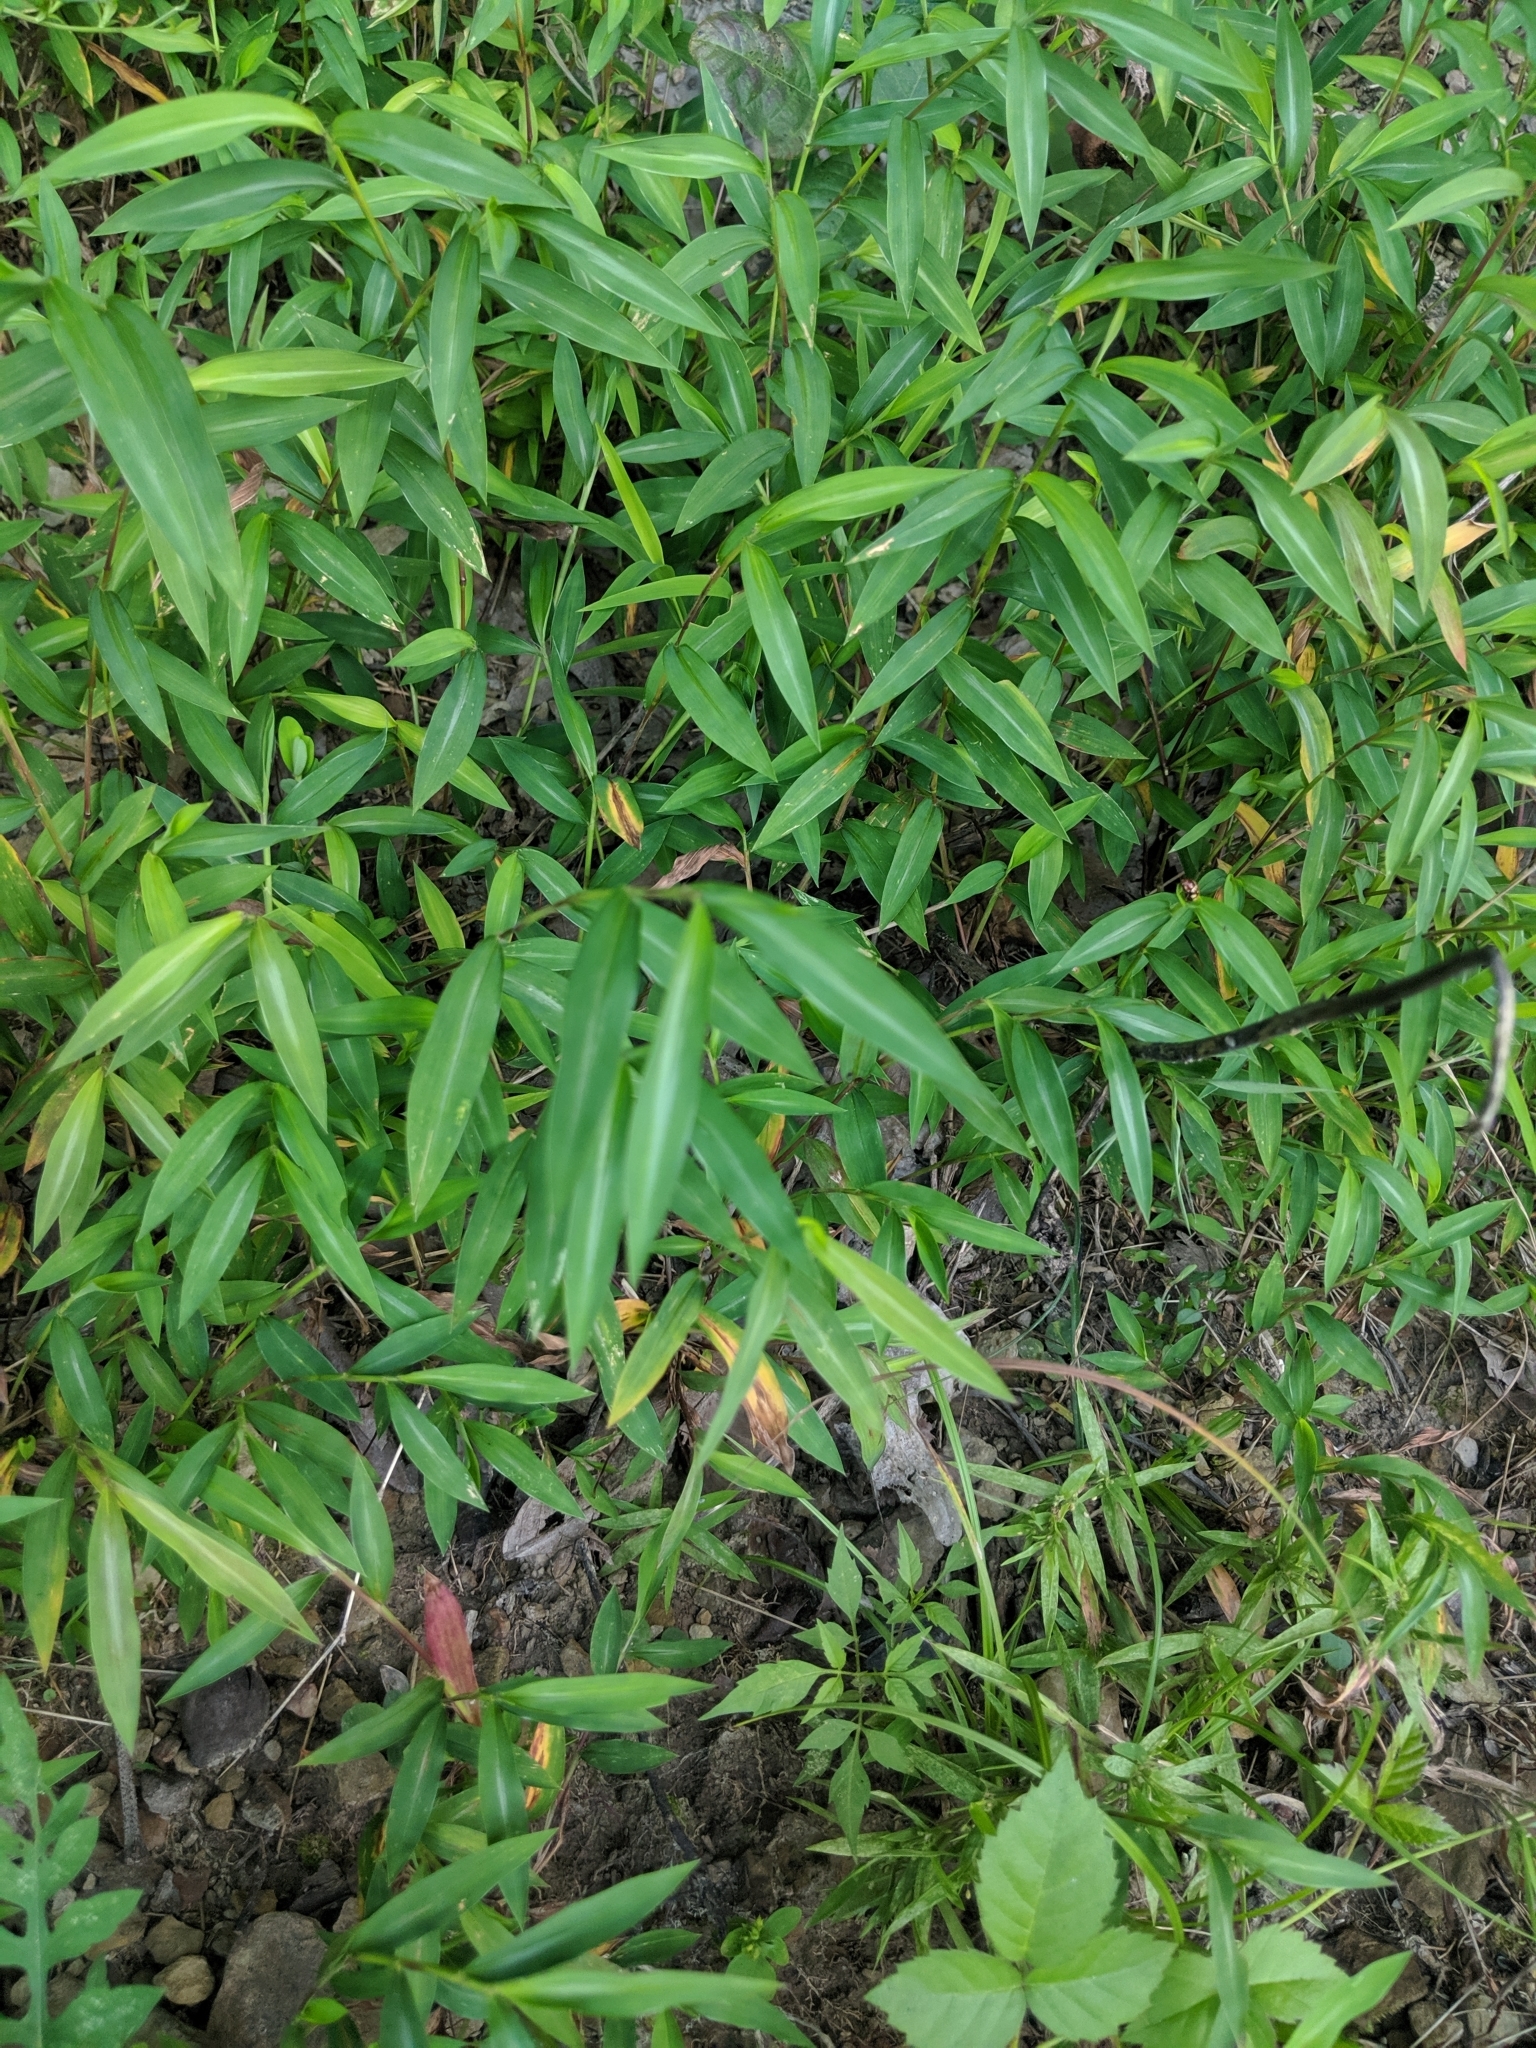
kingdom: Plantae
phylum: Tracheophyta
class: Liliopsida
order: Poales
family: Poaceae
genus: Microstegium
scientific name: Microstegium vimineum
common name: Japanese stiltgrass
